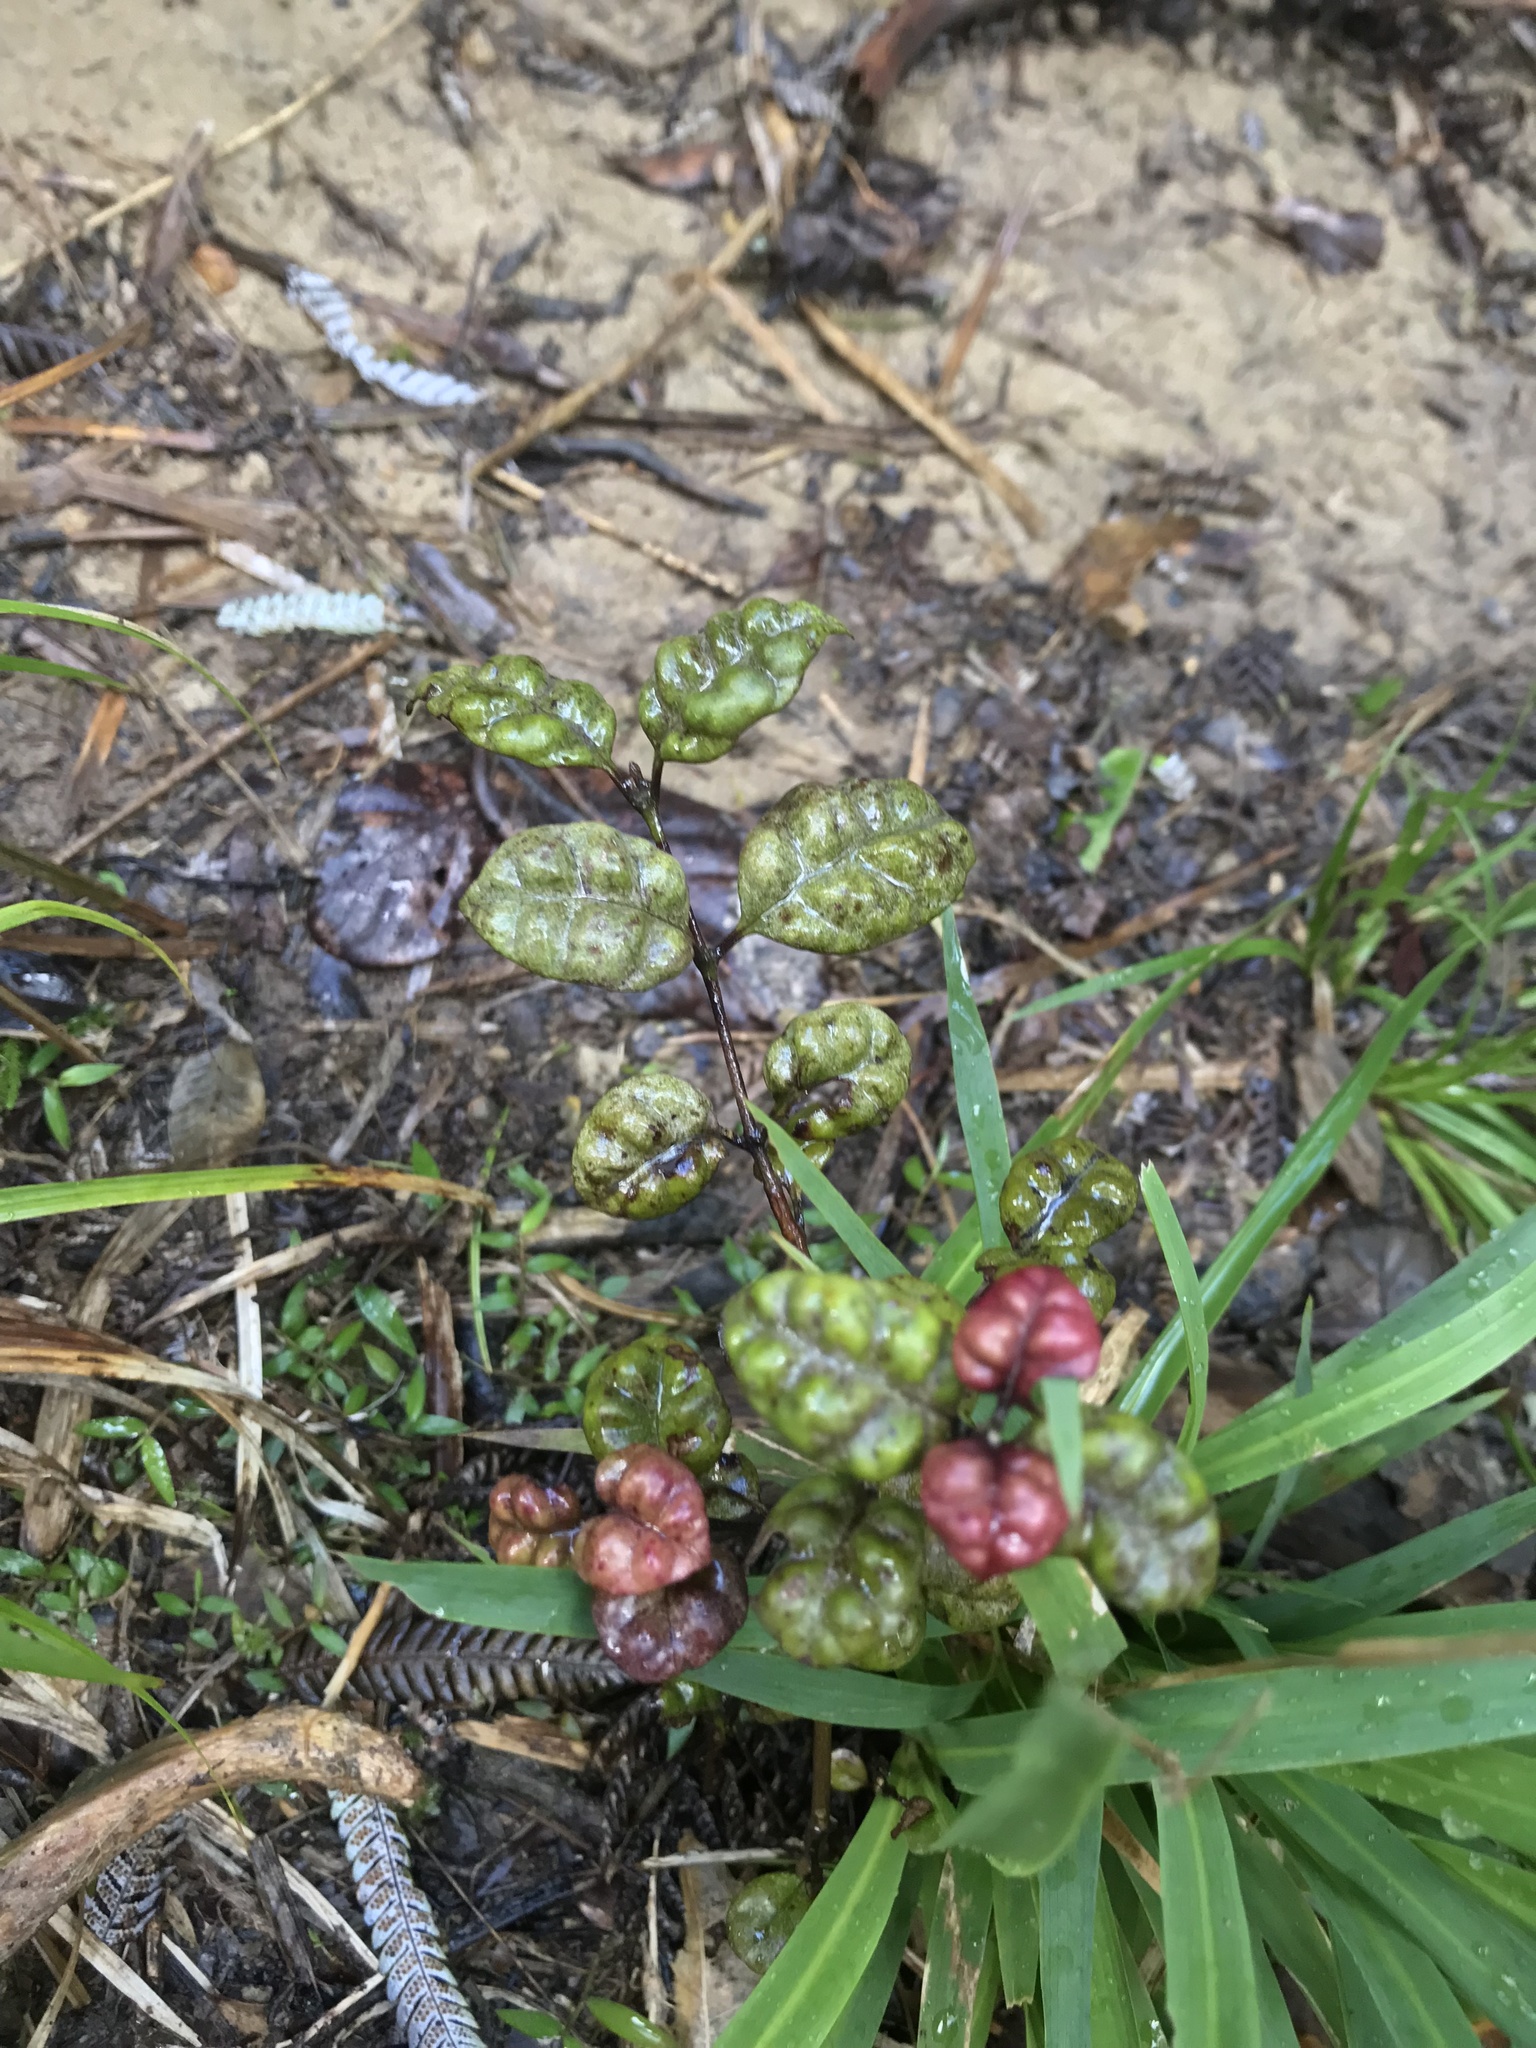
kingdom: Plantae
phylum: Tracheophyta
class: Magnoliopsida
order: Myrtales
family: Myrtaceae
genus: Lophomyrtus
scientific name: Lophomyrtus bullata
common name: Rama rama
